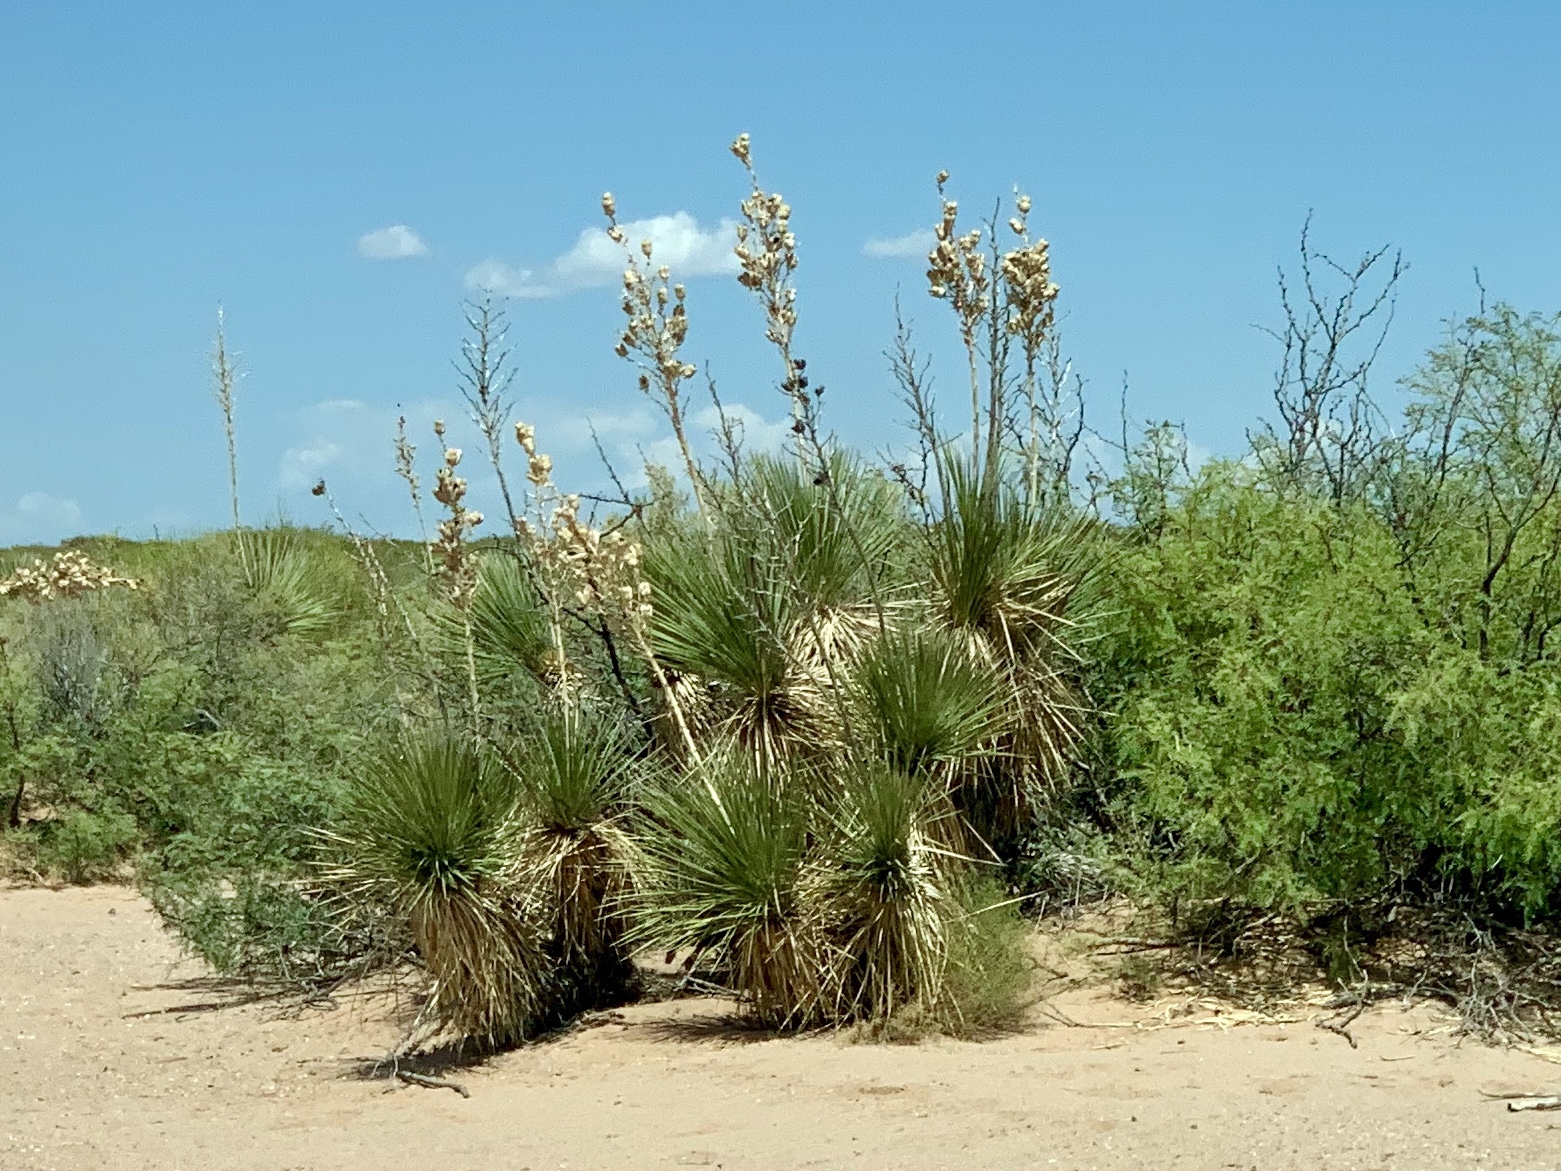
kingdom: Plantae
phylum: Tracheophyta
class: Liliopsida
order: Asparagales
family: Asparagaceae
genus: Yucca
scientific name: Yucca elata
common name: Palmella
